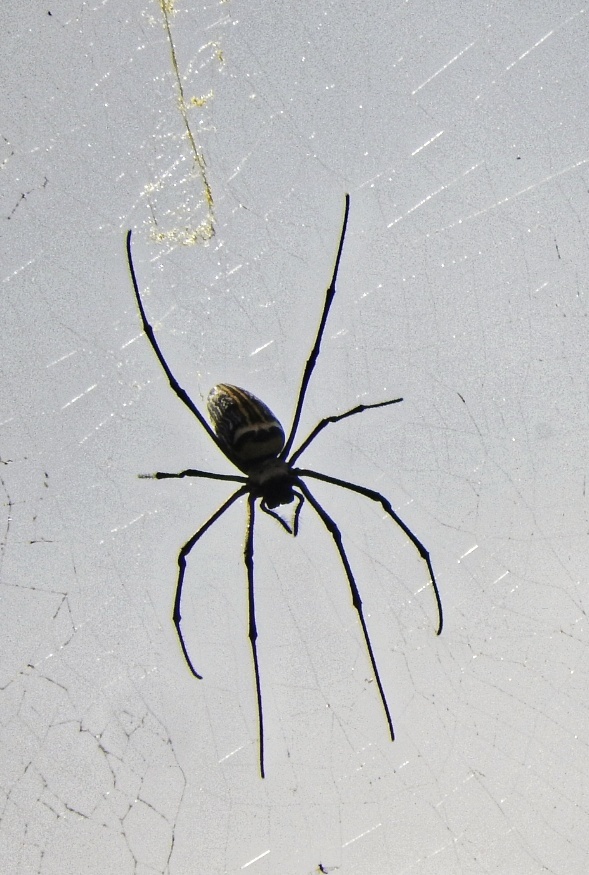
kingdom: Animalia
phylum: Arthropoda
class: Arachnida
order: Araneae
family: Araneidae
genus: Nephila
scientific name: Nephila pilipes
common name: Giant golden orb weaver
